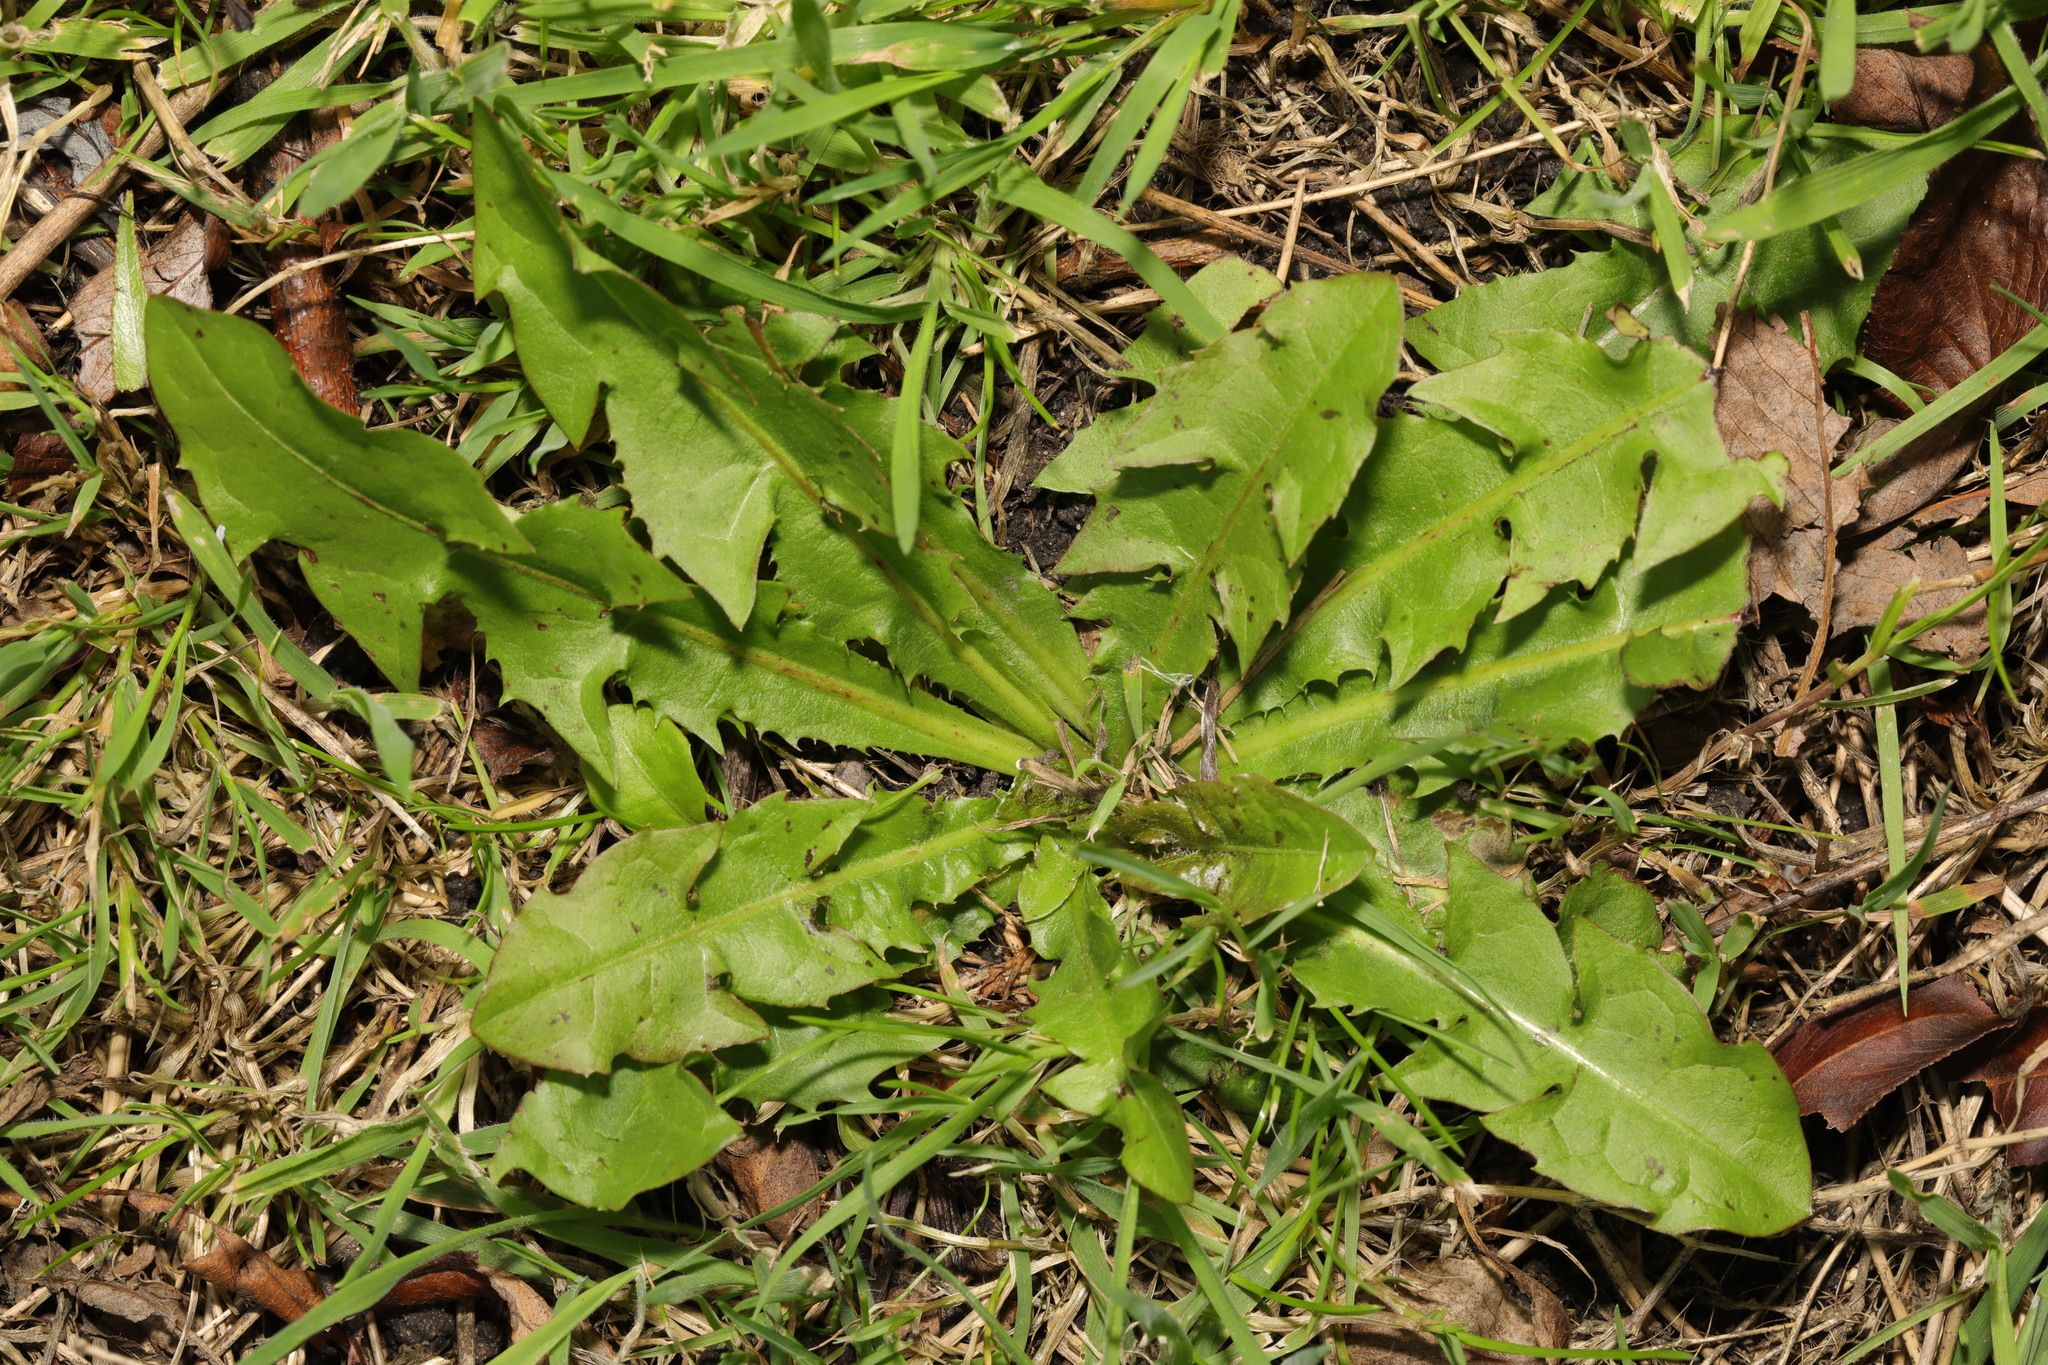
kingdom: Plantae
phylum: Tracheophyta
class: Magnoliopsida
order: Asterales
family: Asteraceae
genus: Taraxacum
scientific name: Taraxacum officinale
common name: Common dandelion
